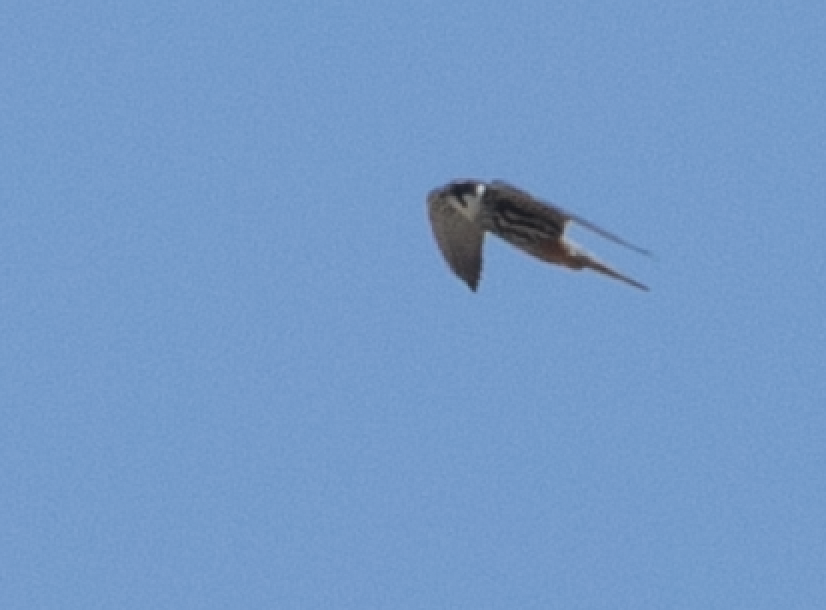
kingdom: Animalia
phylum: Chordata
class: Aves
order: Falconiformes
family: Falconidae
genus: Falco
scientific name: Falco subbuteo
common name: Eurasian hobby
